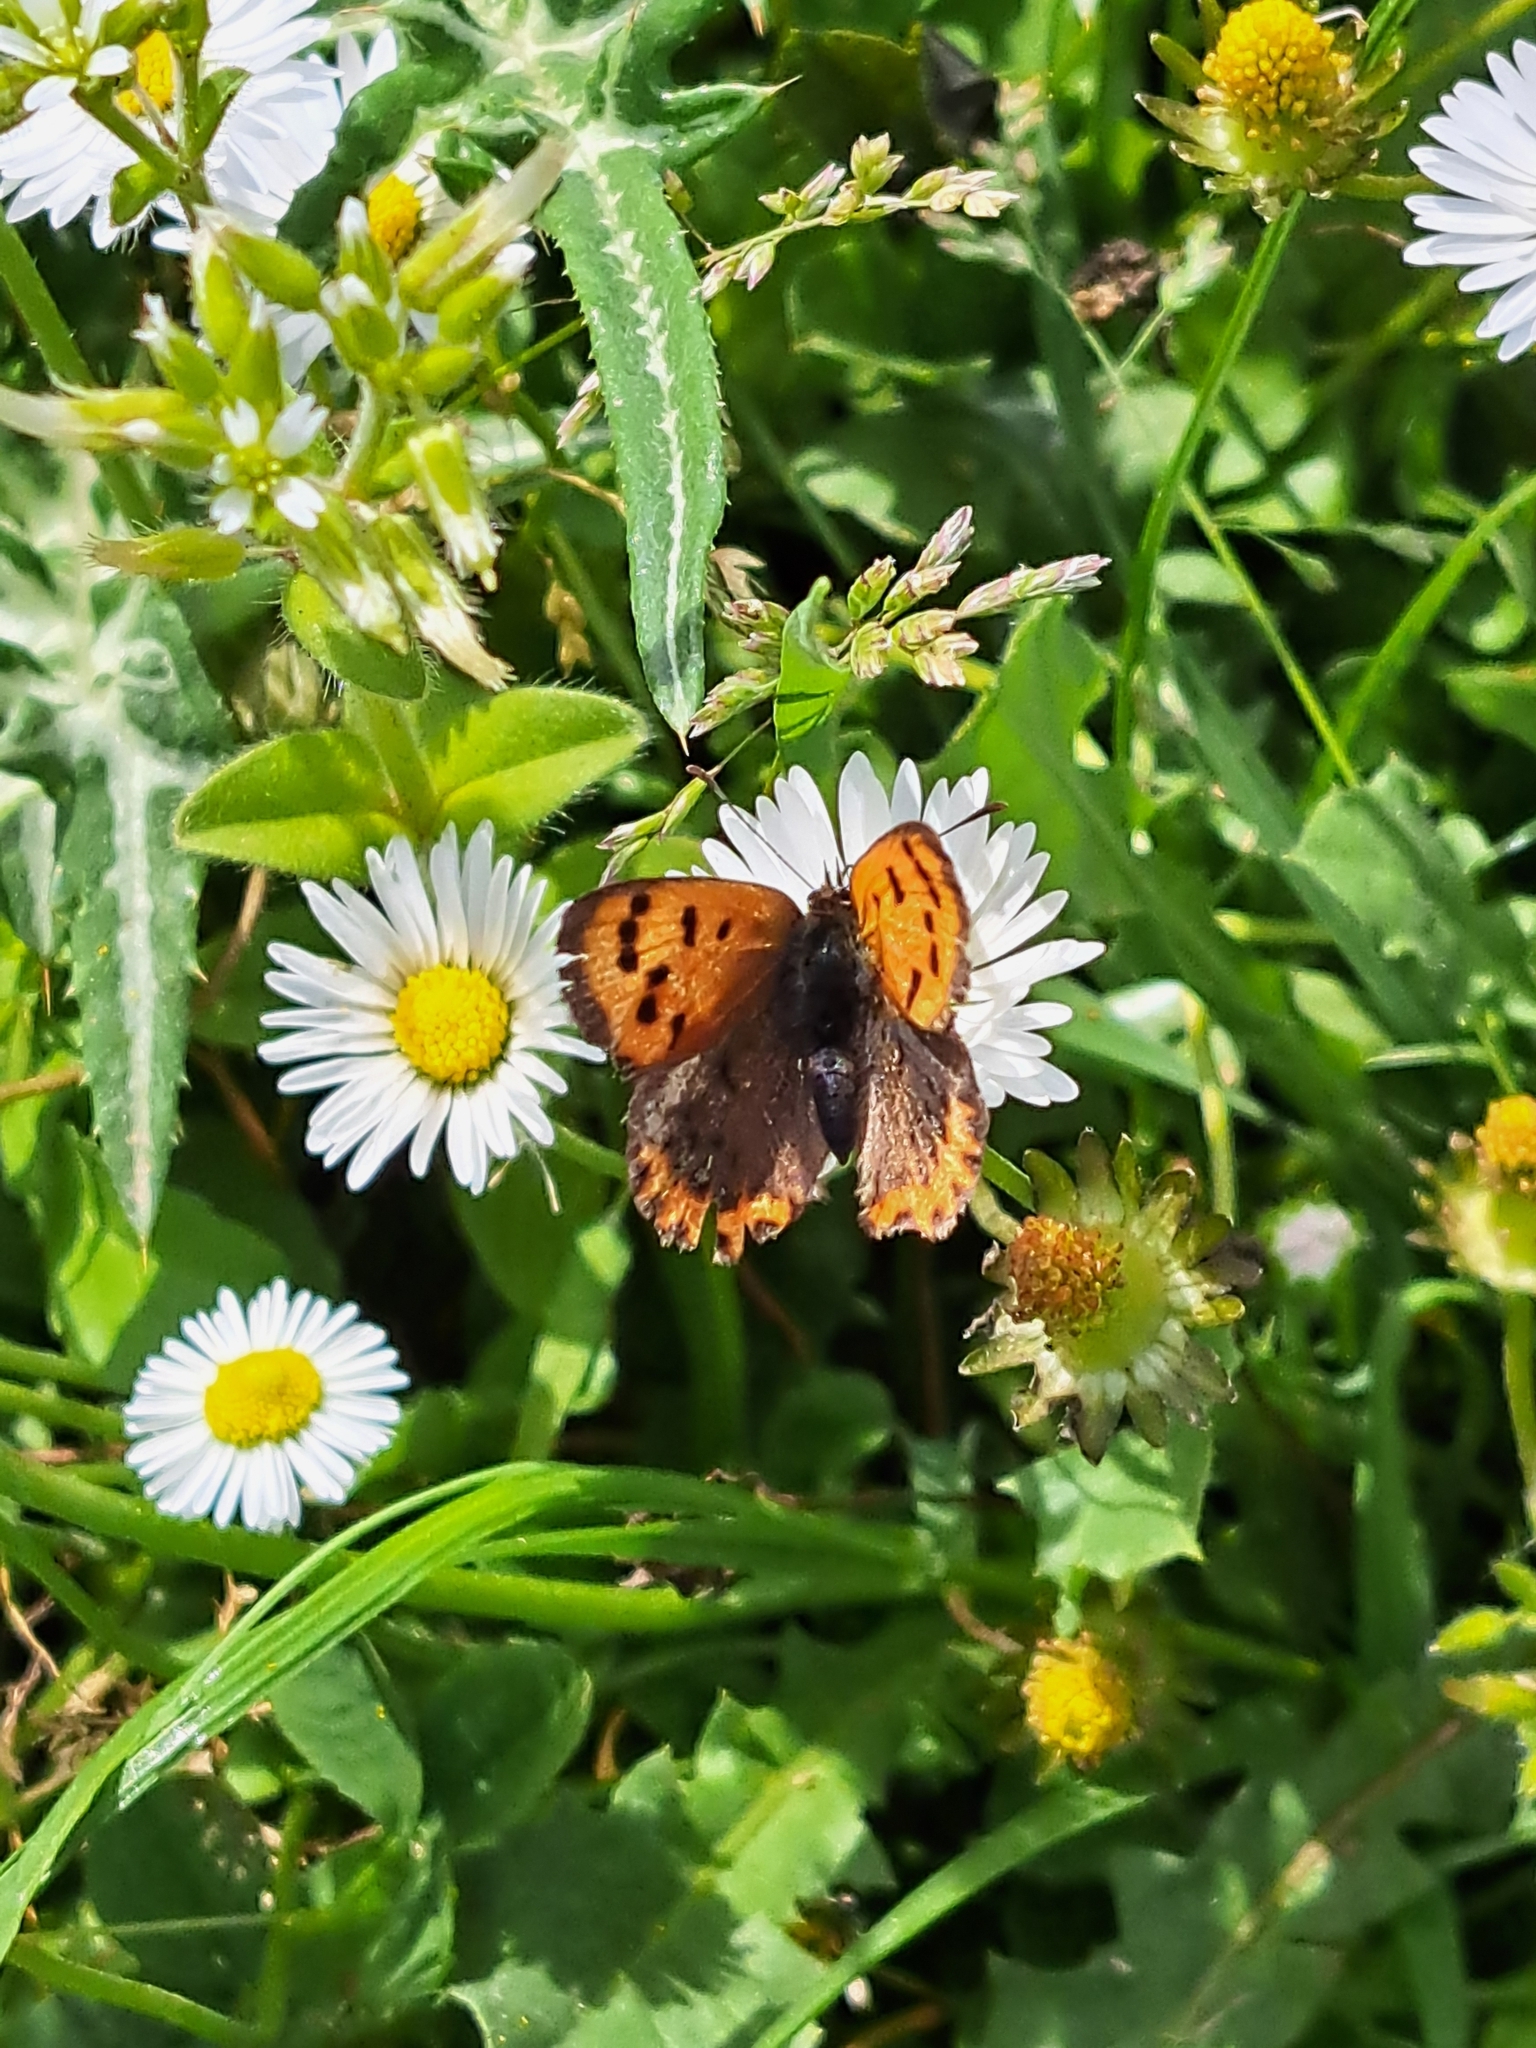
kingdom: Animalia
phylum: Arthropoda
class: Insecta
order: Lepidoptera
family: Lycaenidae
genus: Lycaena
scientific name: Lycaena phlaeas
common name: Small copper
